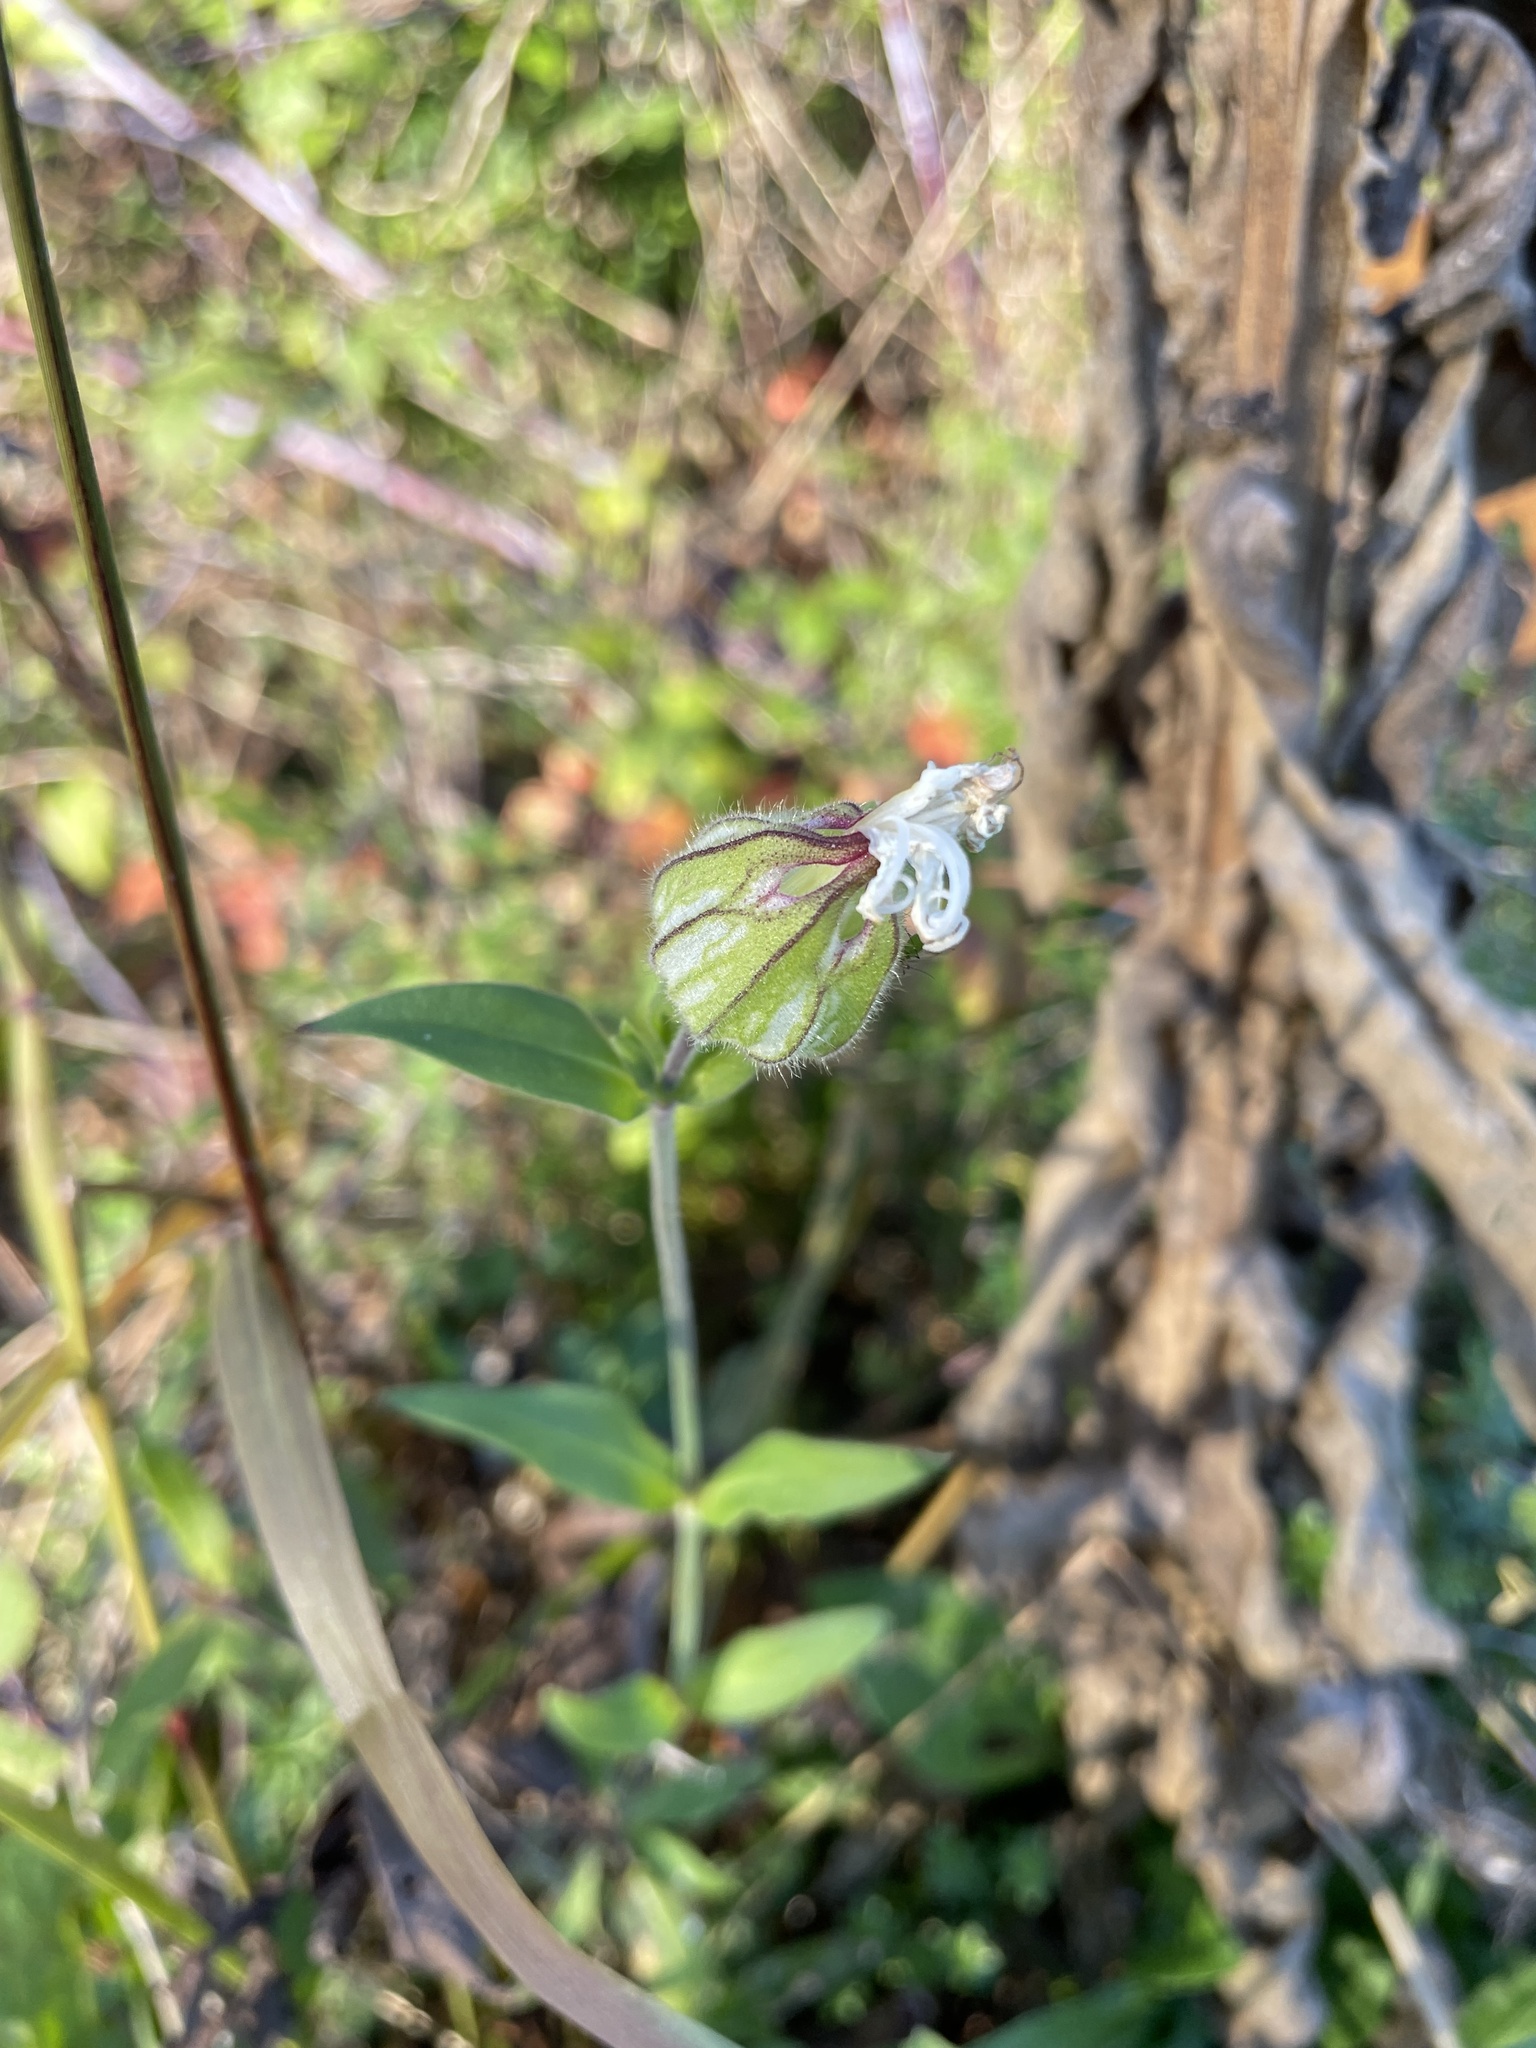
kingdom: Plantae
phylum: Tracheophyta
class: Magnoliopsida
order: Caryophyllales
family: Caryophyllaceae
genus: Silene
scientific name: Silene latifolia
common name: White campion
